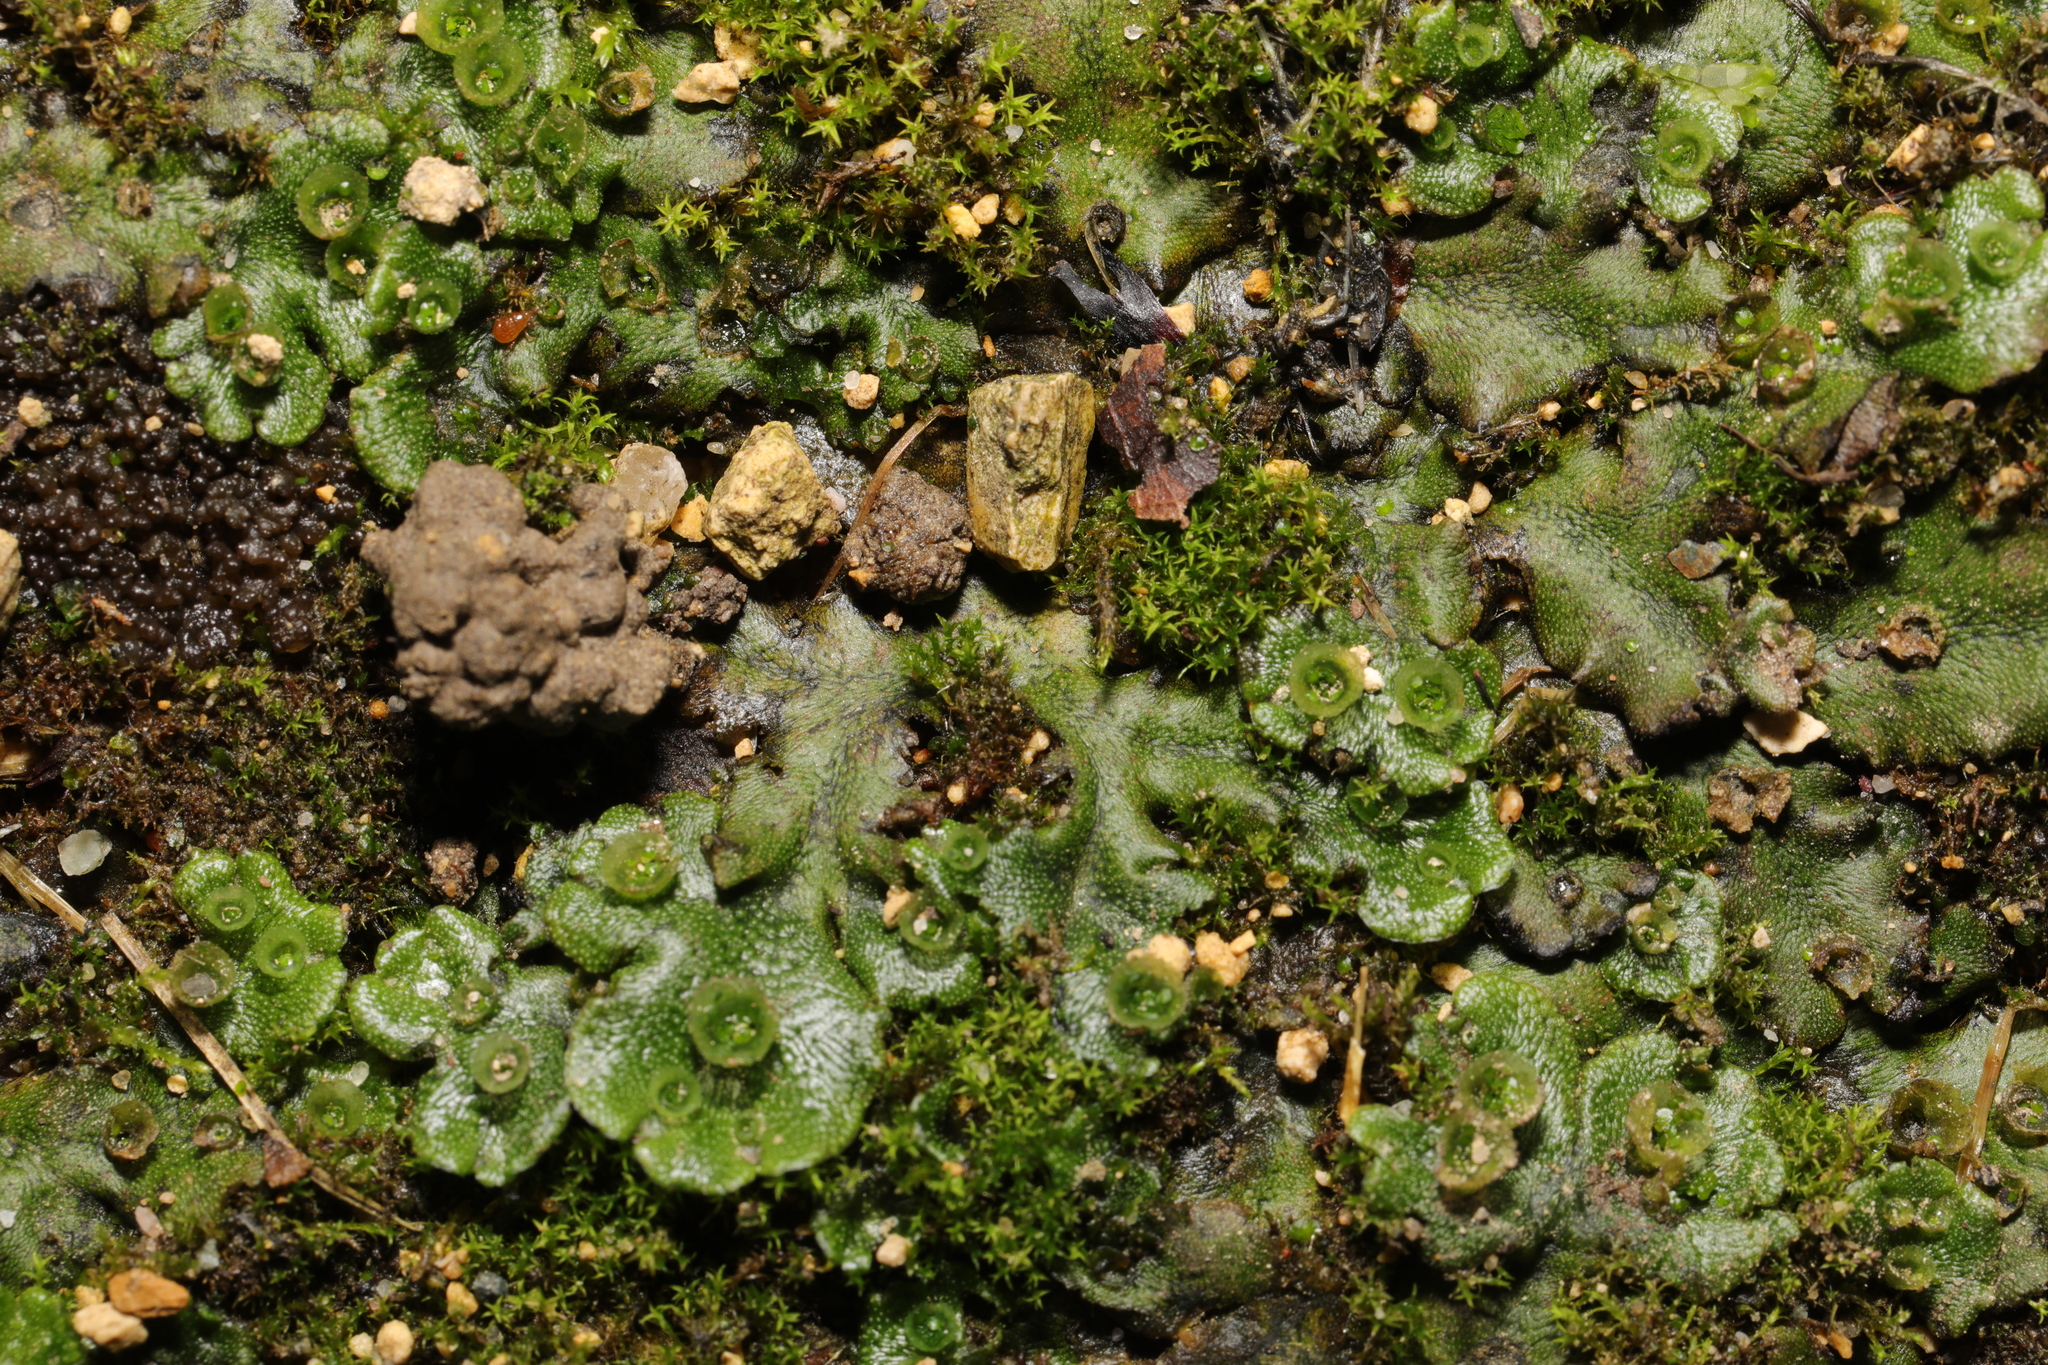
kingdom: Plantae
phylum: Marchantiophyta
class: Marchantiopsida
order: Marchantiales
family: Marchantiaceae
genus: Marchantia
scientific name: Marchantia polymorpha
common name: Common liverwort
